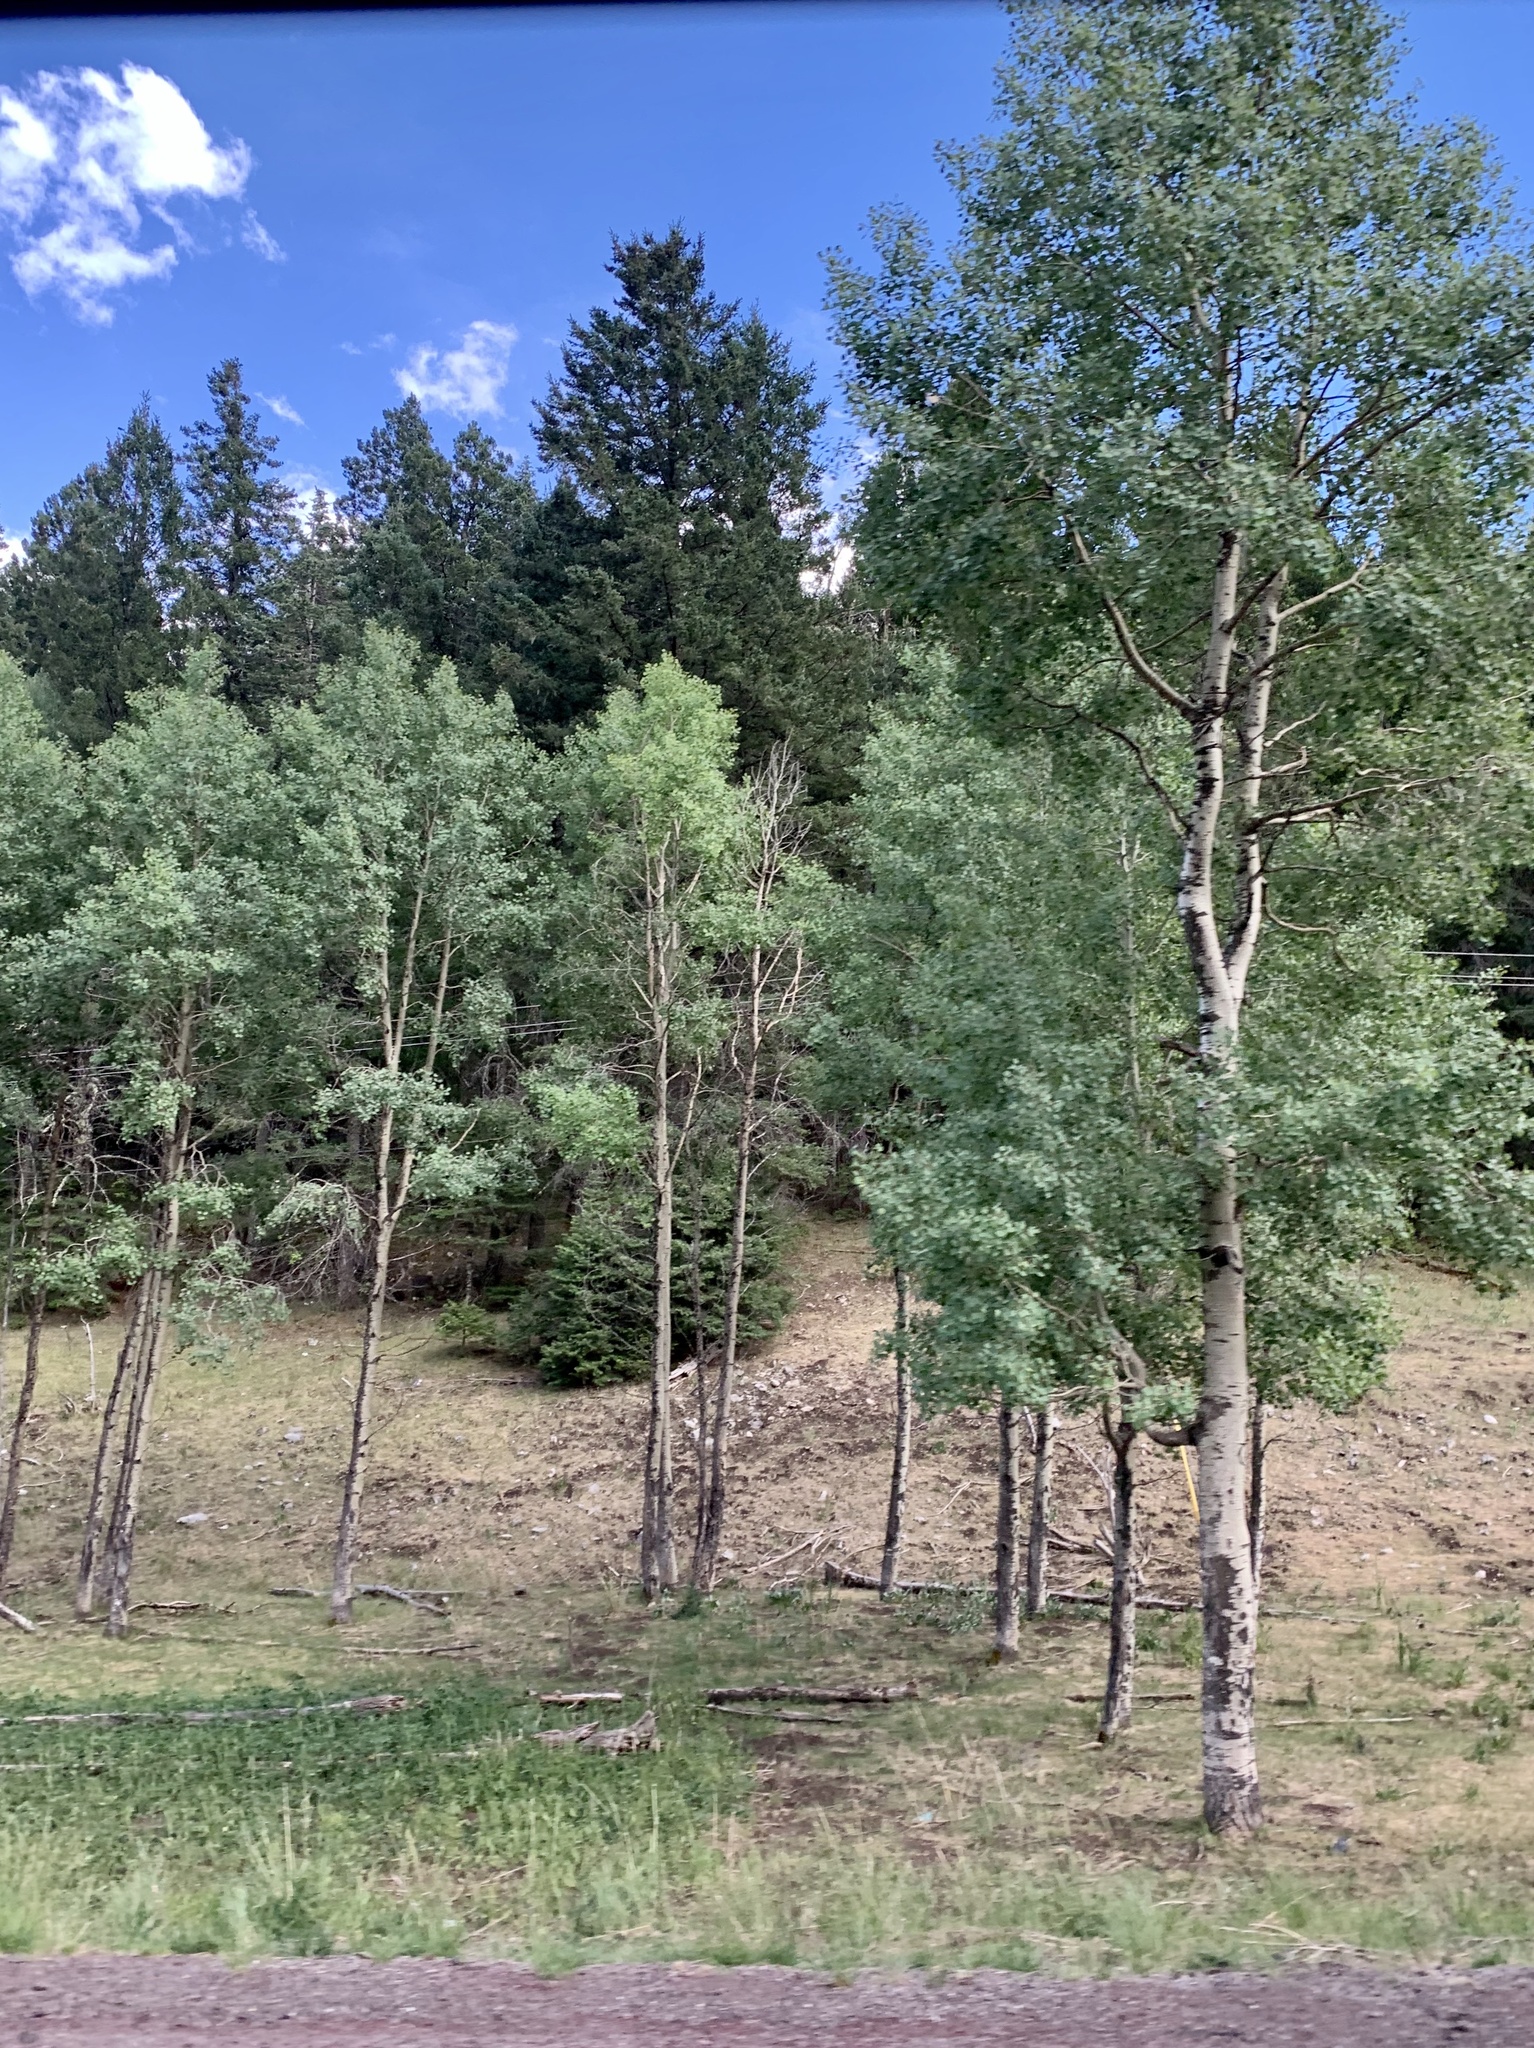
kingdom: Plantae
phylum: Tracheophyta
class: Magnoliopsida
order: Malpighiales
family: Salicaceae
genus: Populus
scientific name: Populus tremuloides
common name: Quaking aspen
